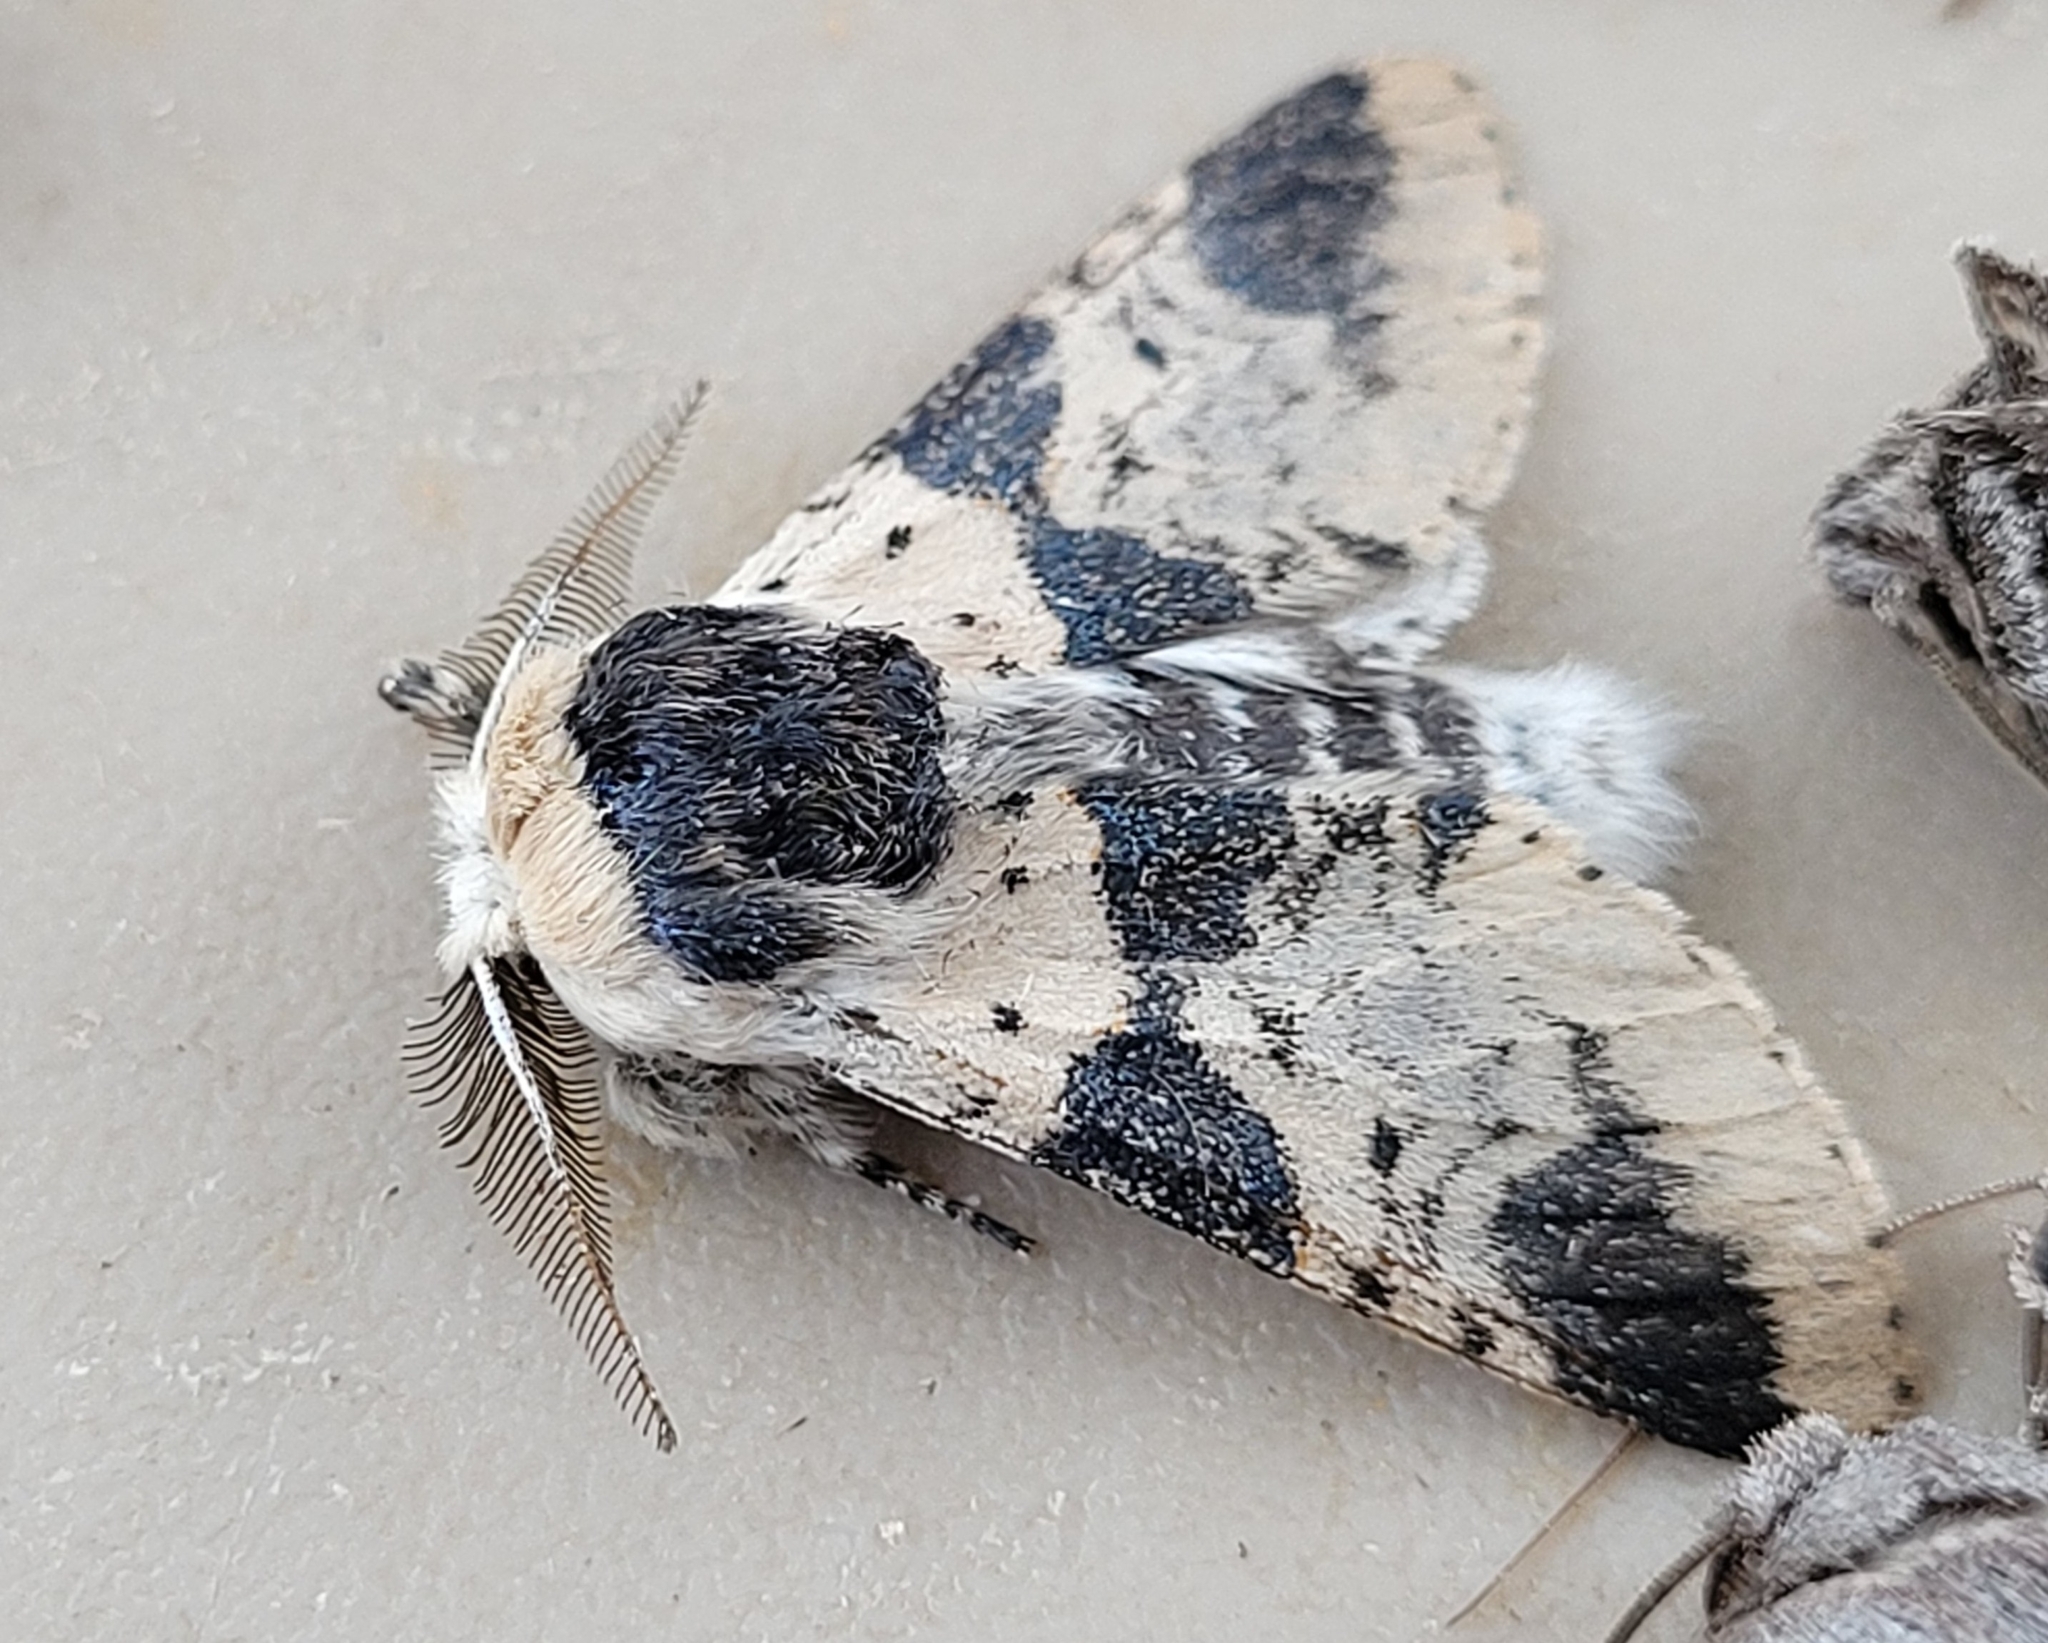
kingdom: Animalia
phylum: Arthropoda
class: Insecta
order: Lepidoptera
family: Notodontidae
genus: Furcula
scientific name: Furcula modesta
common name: Modest furcula moth
